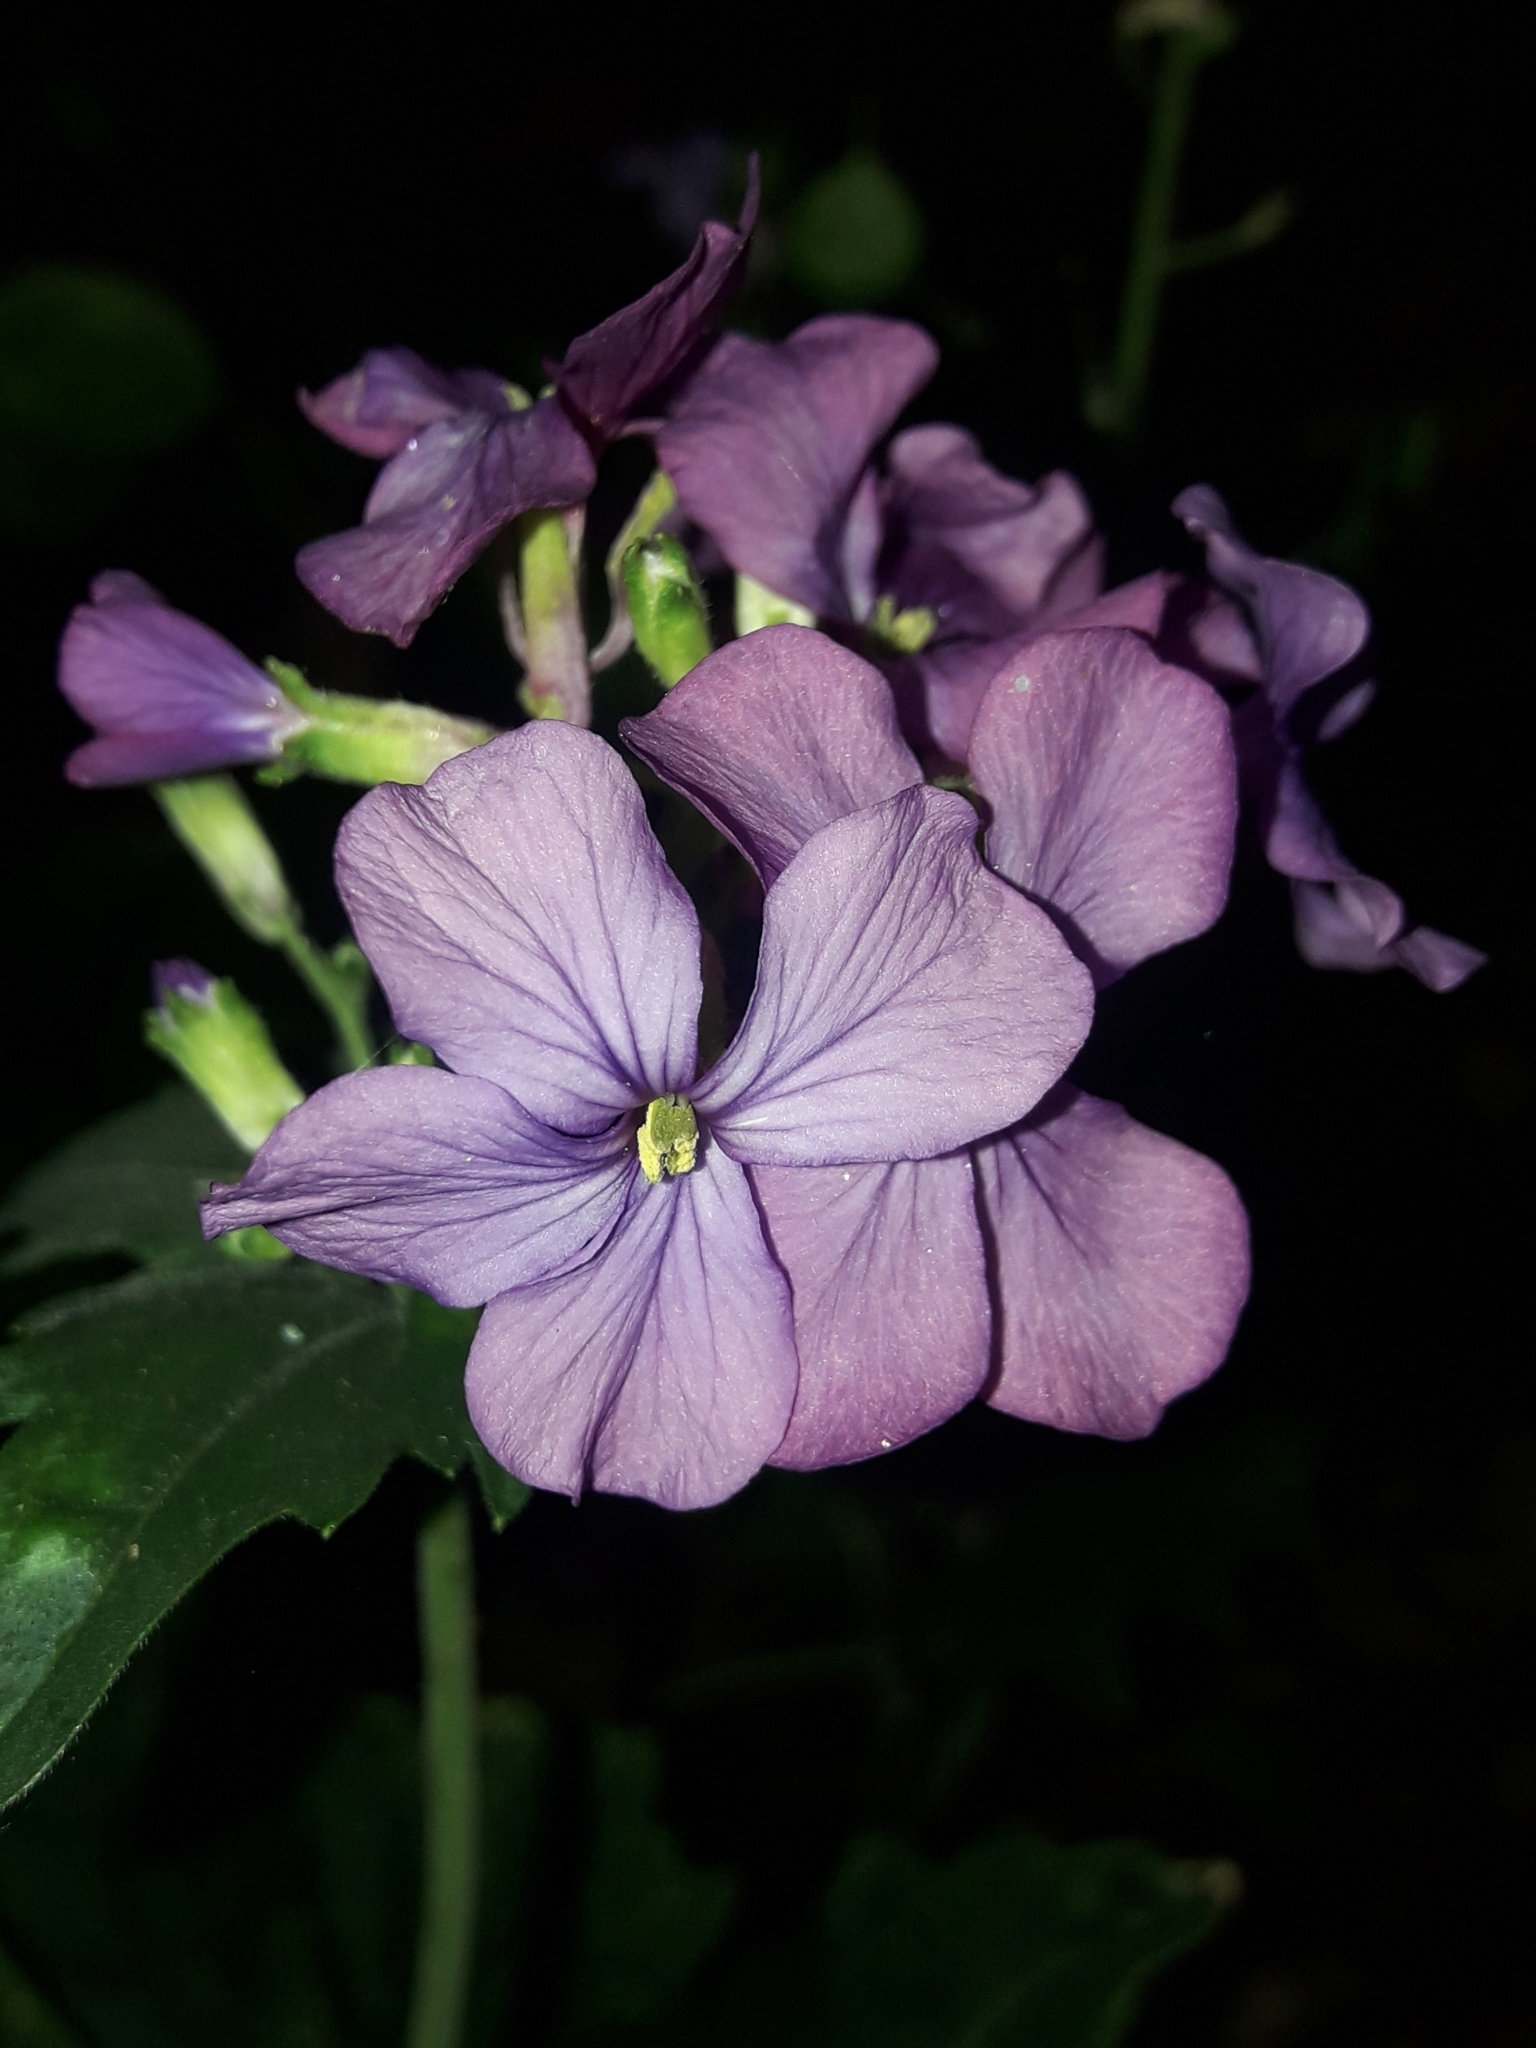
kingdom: Plantae
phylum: Tracheophyta
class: Magnoliopsida
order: Brassicales
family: Brassicaceae
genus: Lunaria
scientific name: Lunaria annua
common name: Honesty
